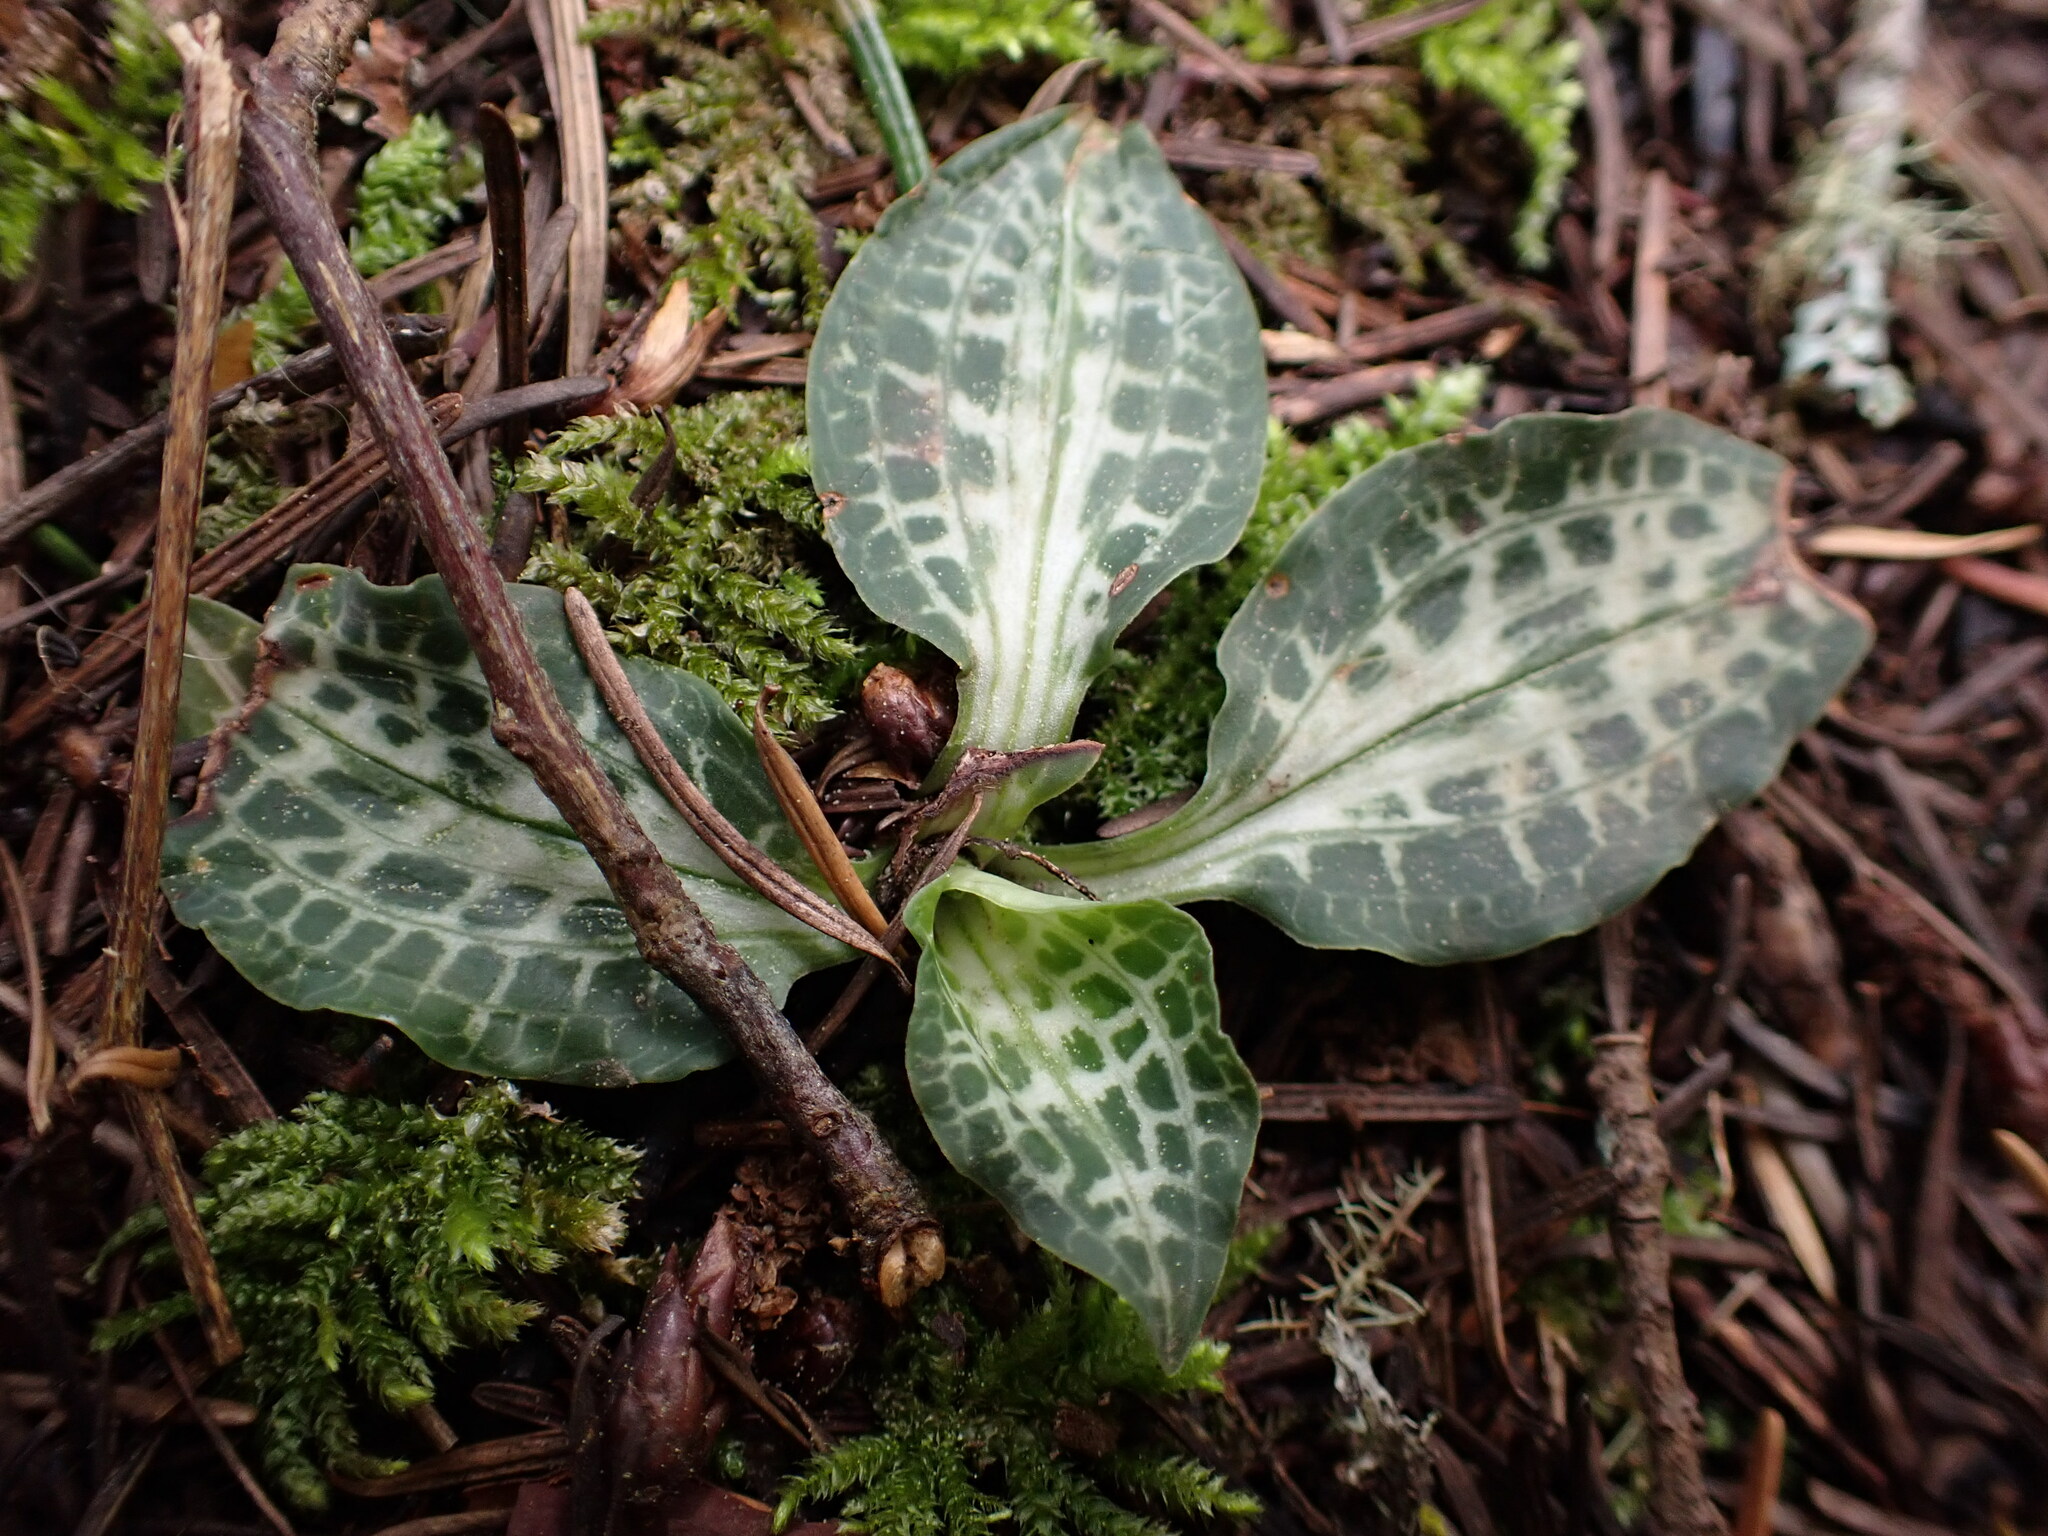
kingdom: Plantae
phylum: Tracheophyta
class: Liliopsida
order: Asparagales
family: Orchidaceae
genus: Goodyera
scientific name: Goodyera oblongifolia
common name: Giant rattlesnake-plantain
